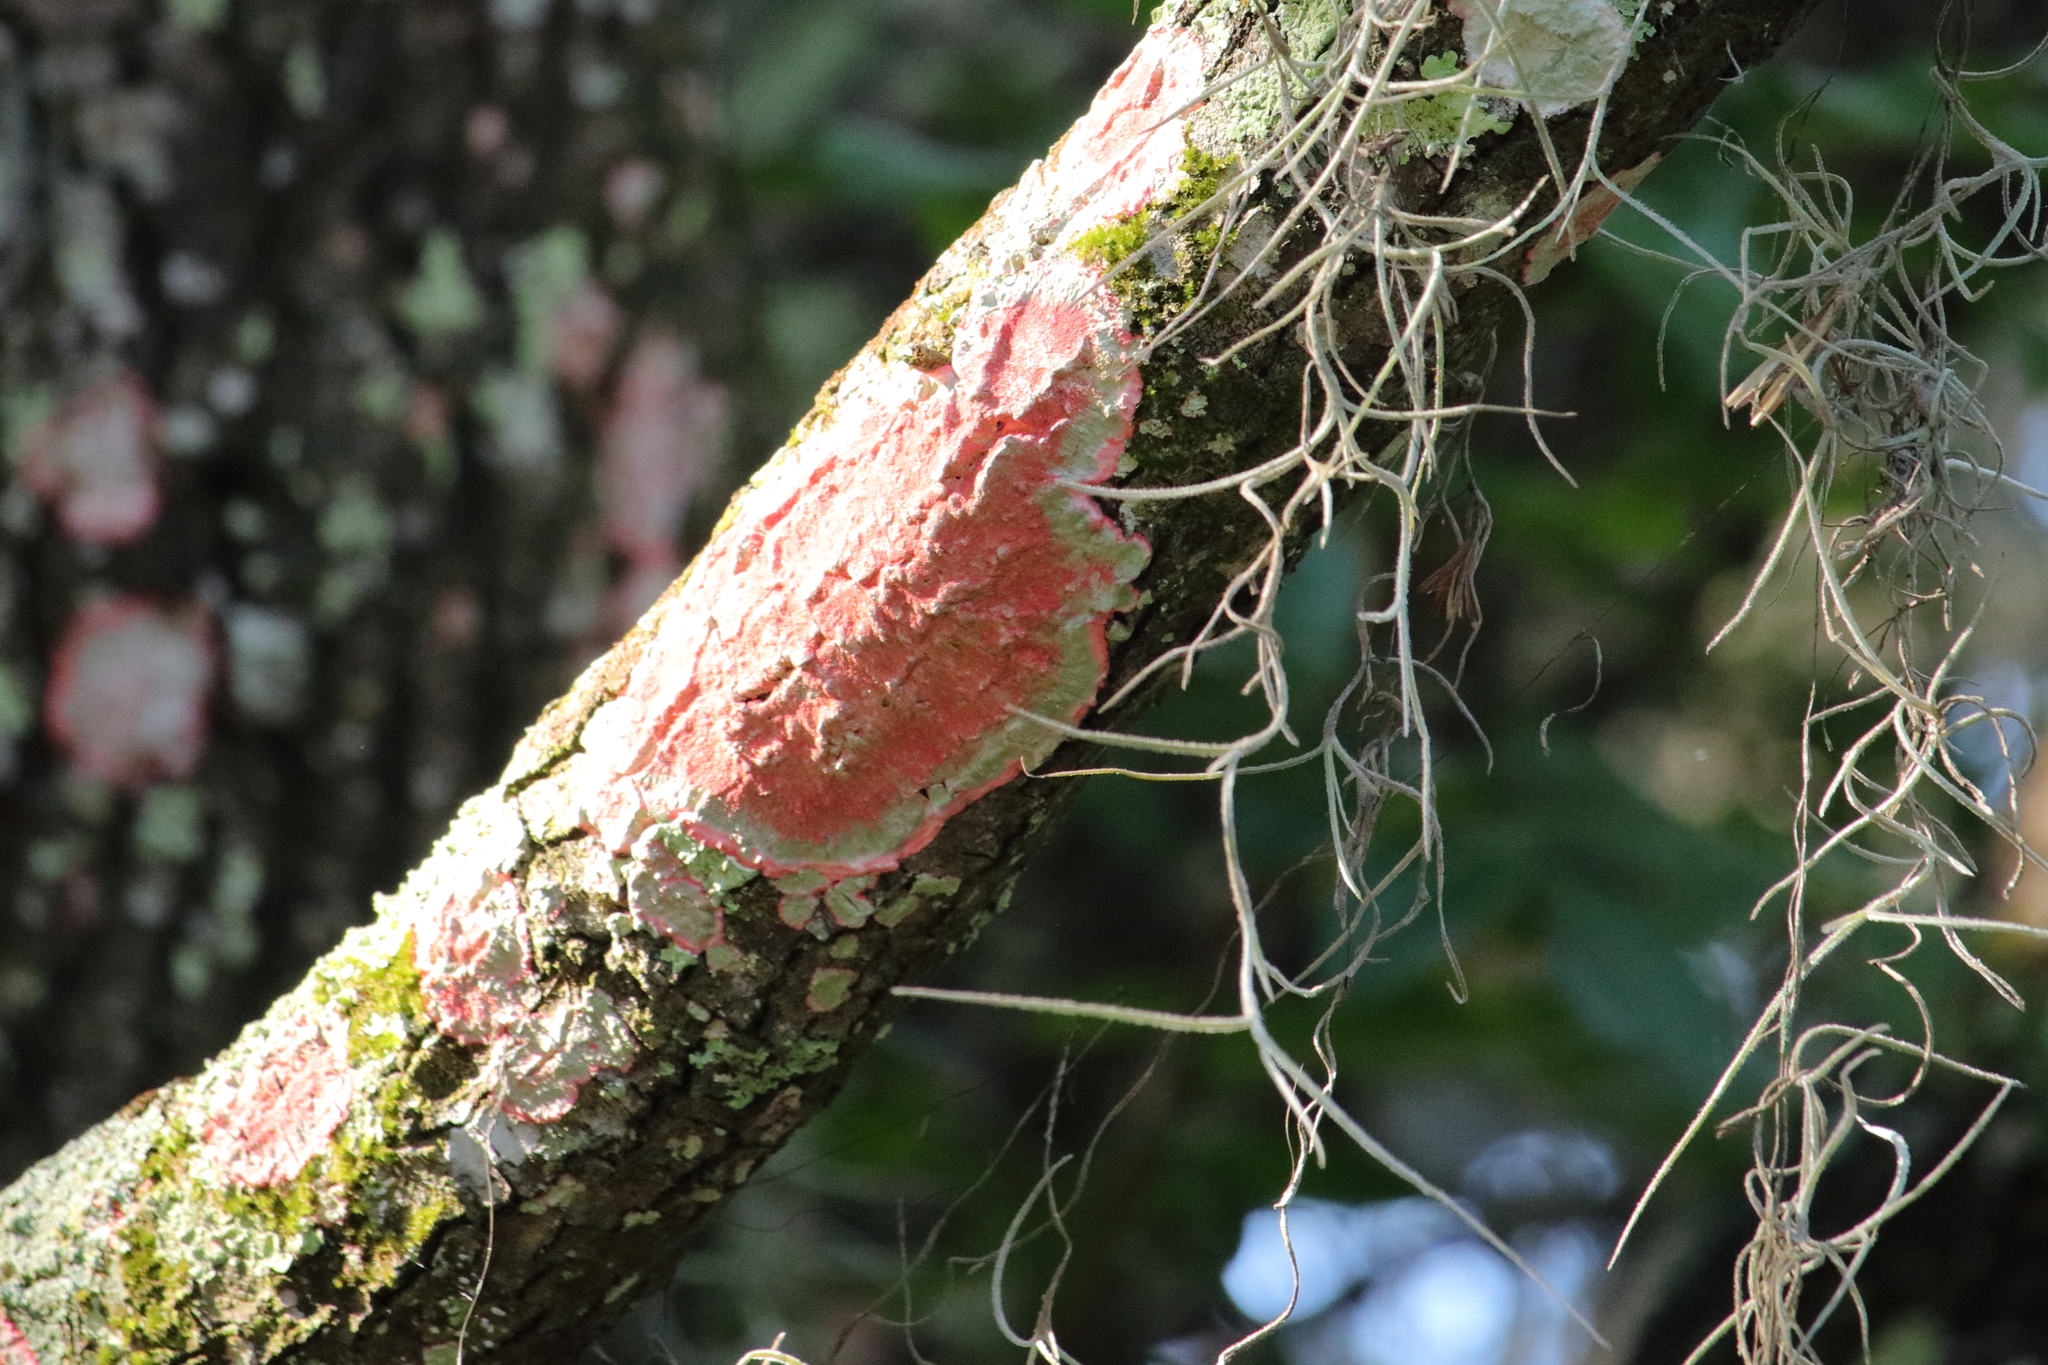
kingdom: Fungi
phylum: Ascomycota
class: Arthoniomycetes
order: Arthoniales
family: Arthoniaceae
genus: Herpothallon
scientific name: Herpothallon rubrocinctum
